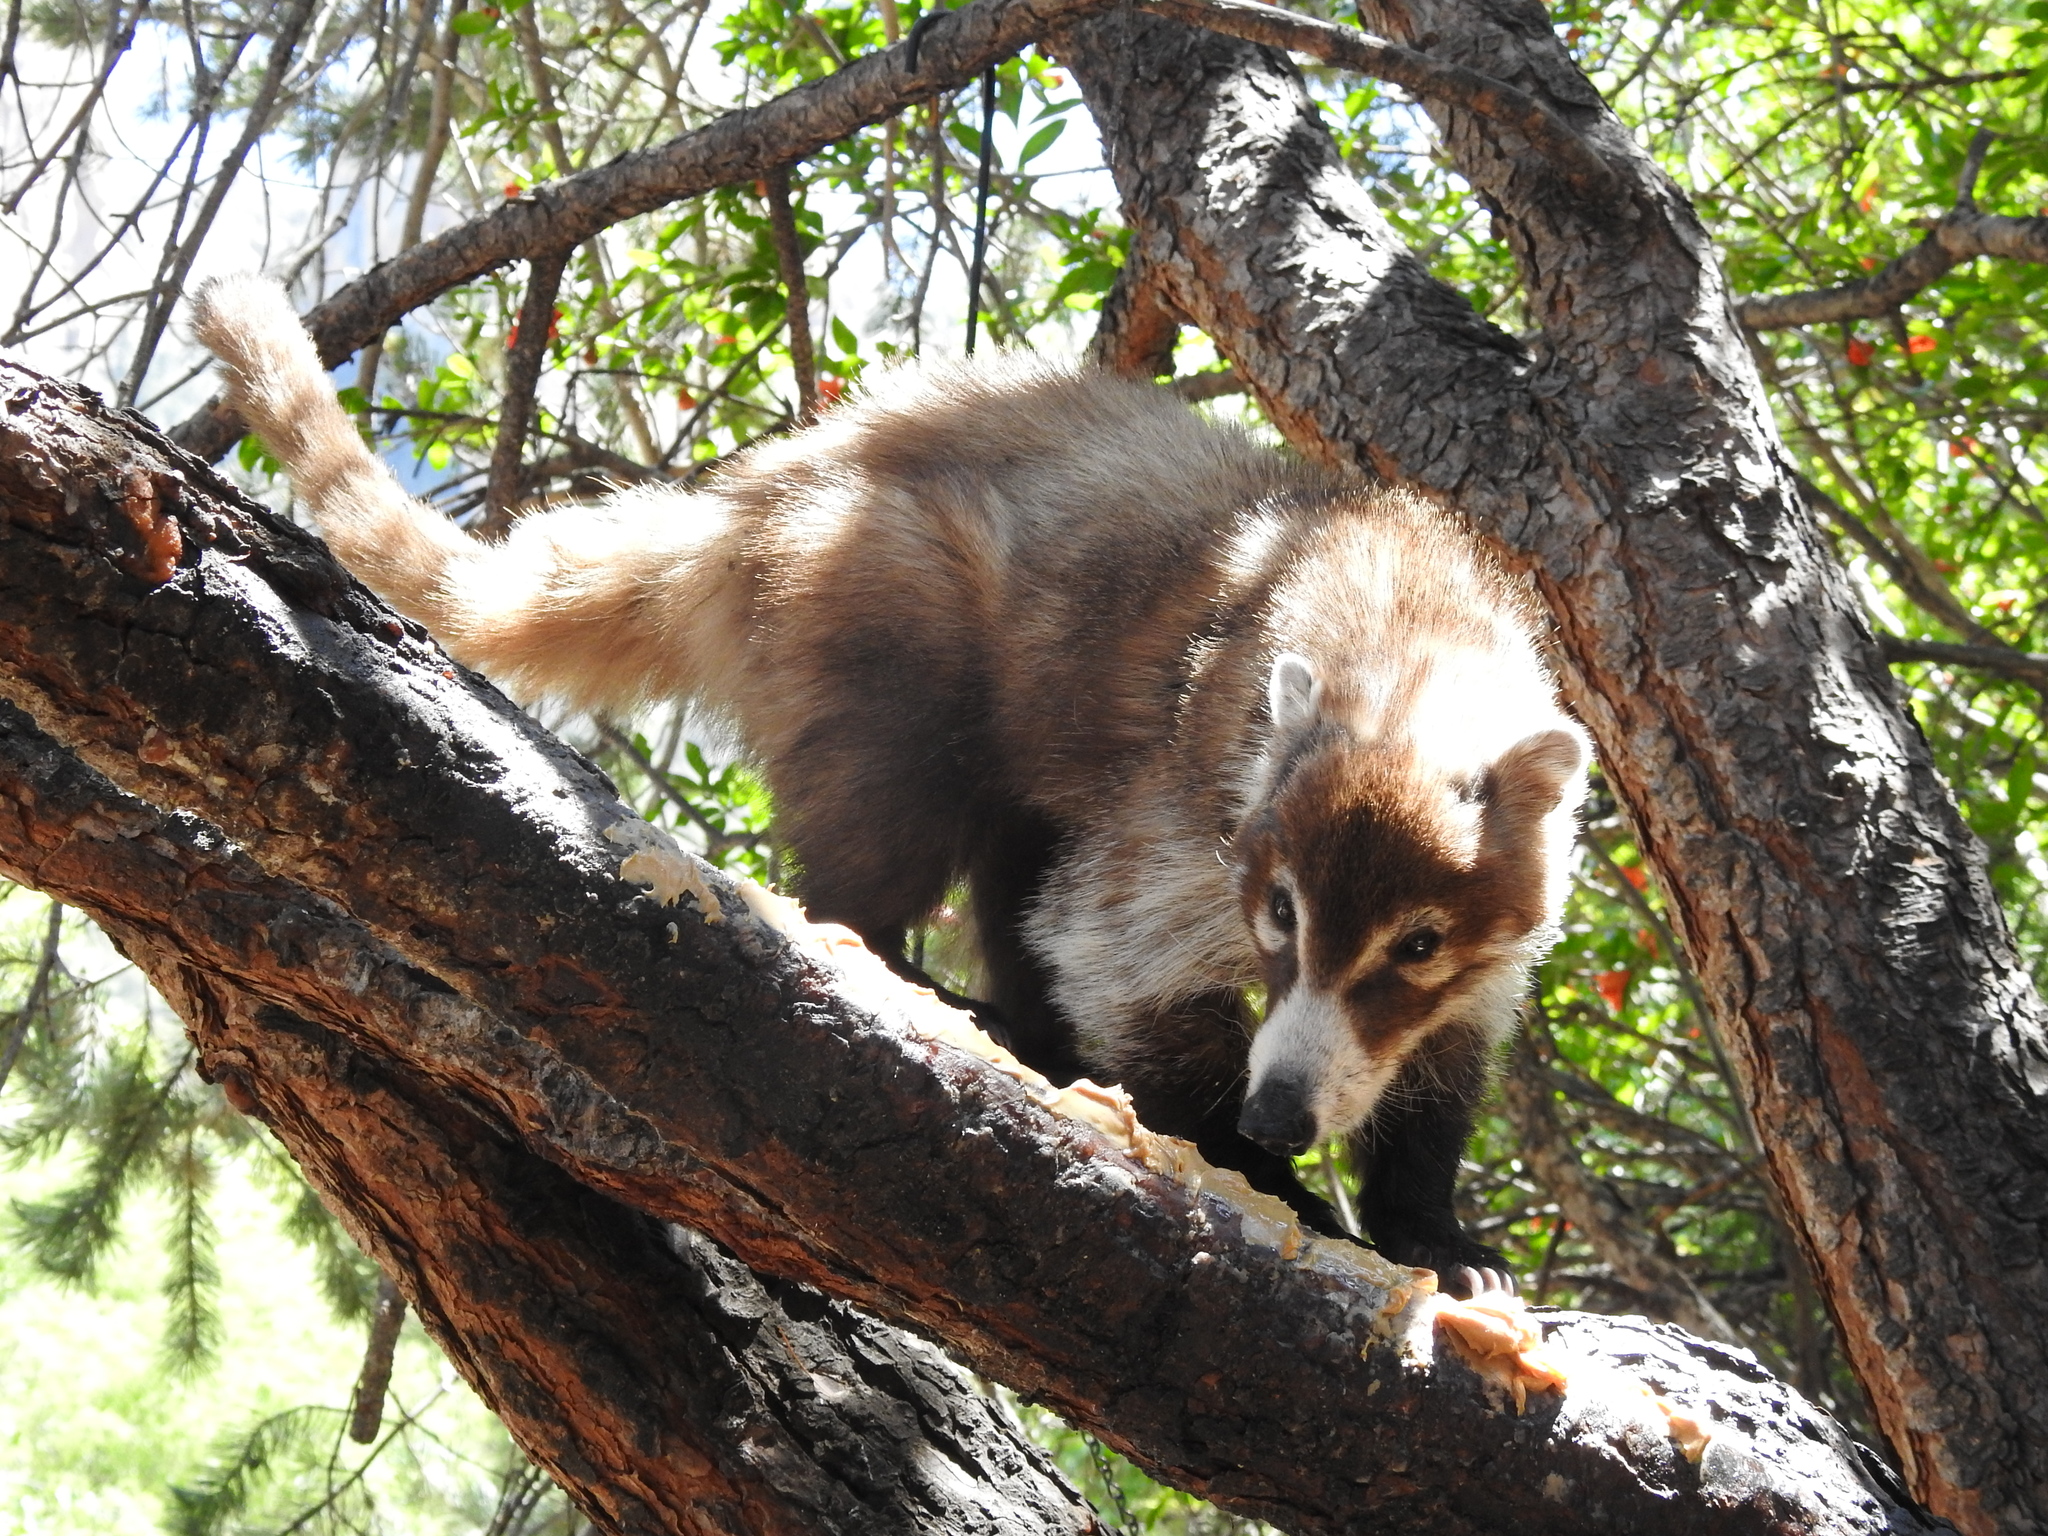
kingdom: Animalia
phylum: Chordata
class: Mammalia
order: Carnivora
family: Procyonidae
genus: Nasua
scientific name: Nasua narica
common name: White-nosed coati
